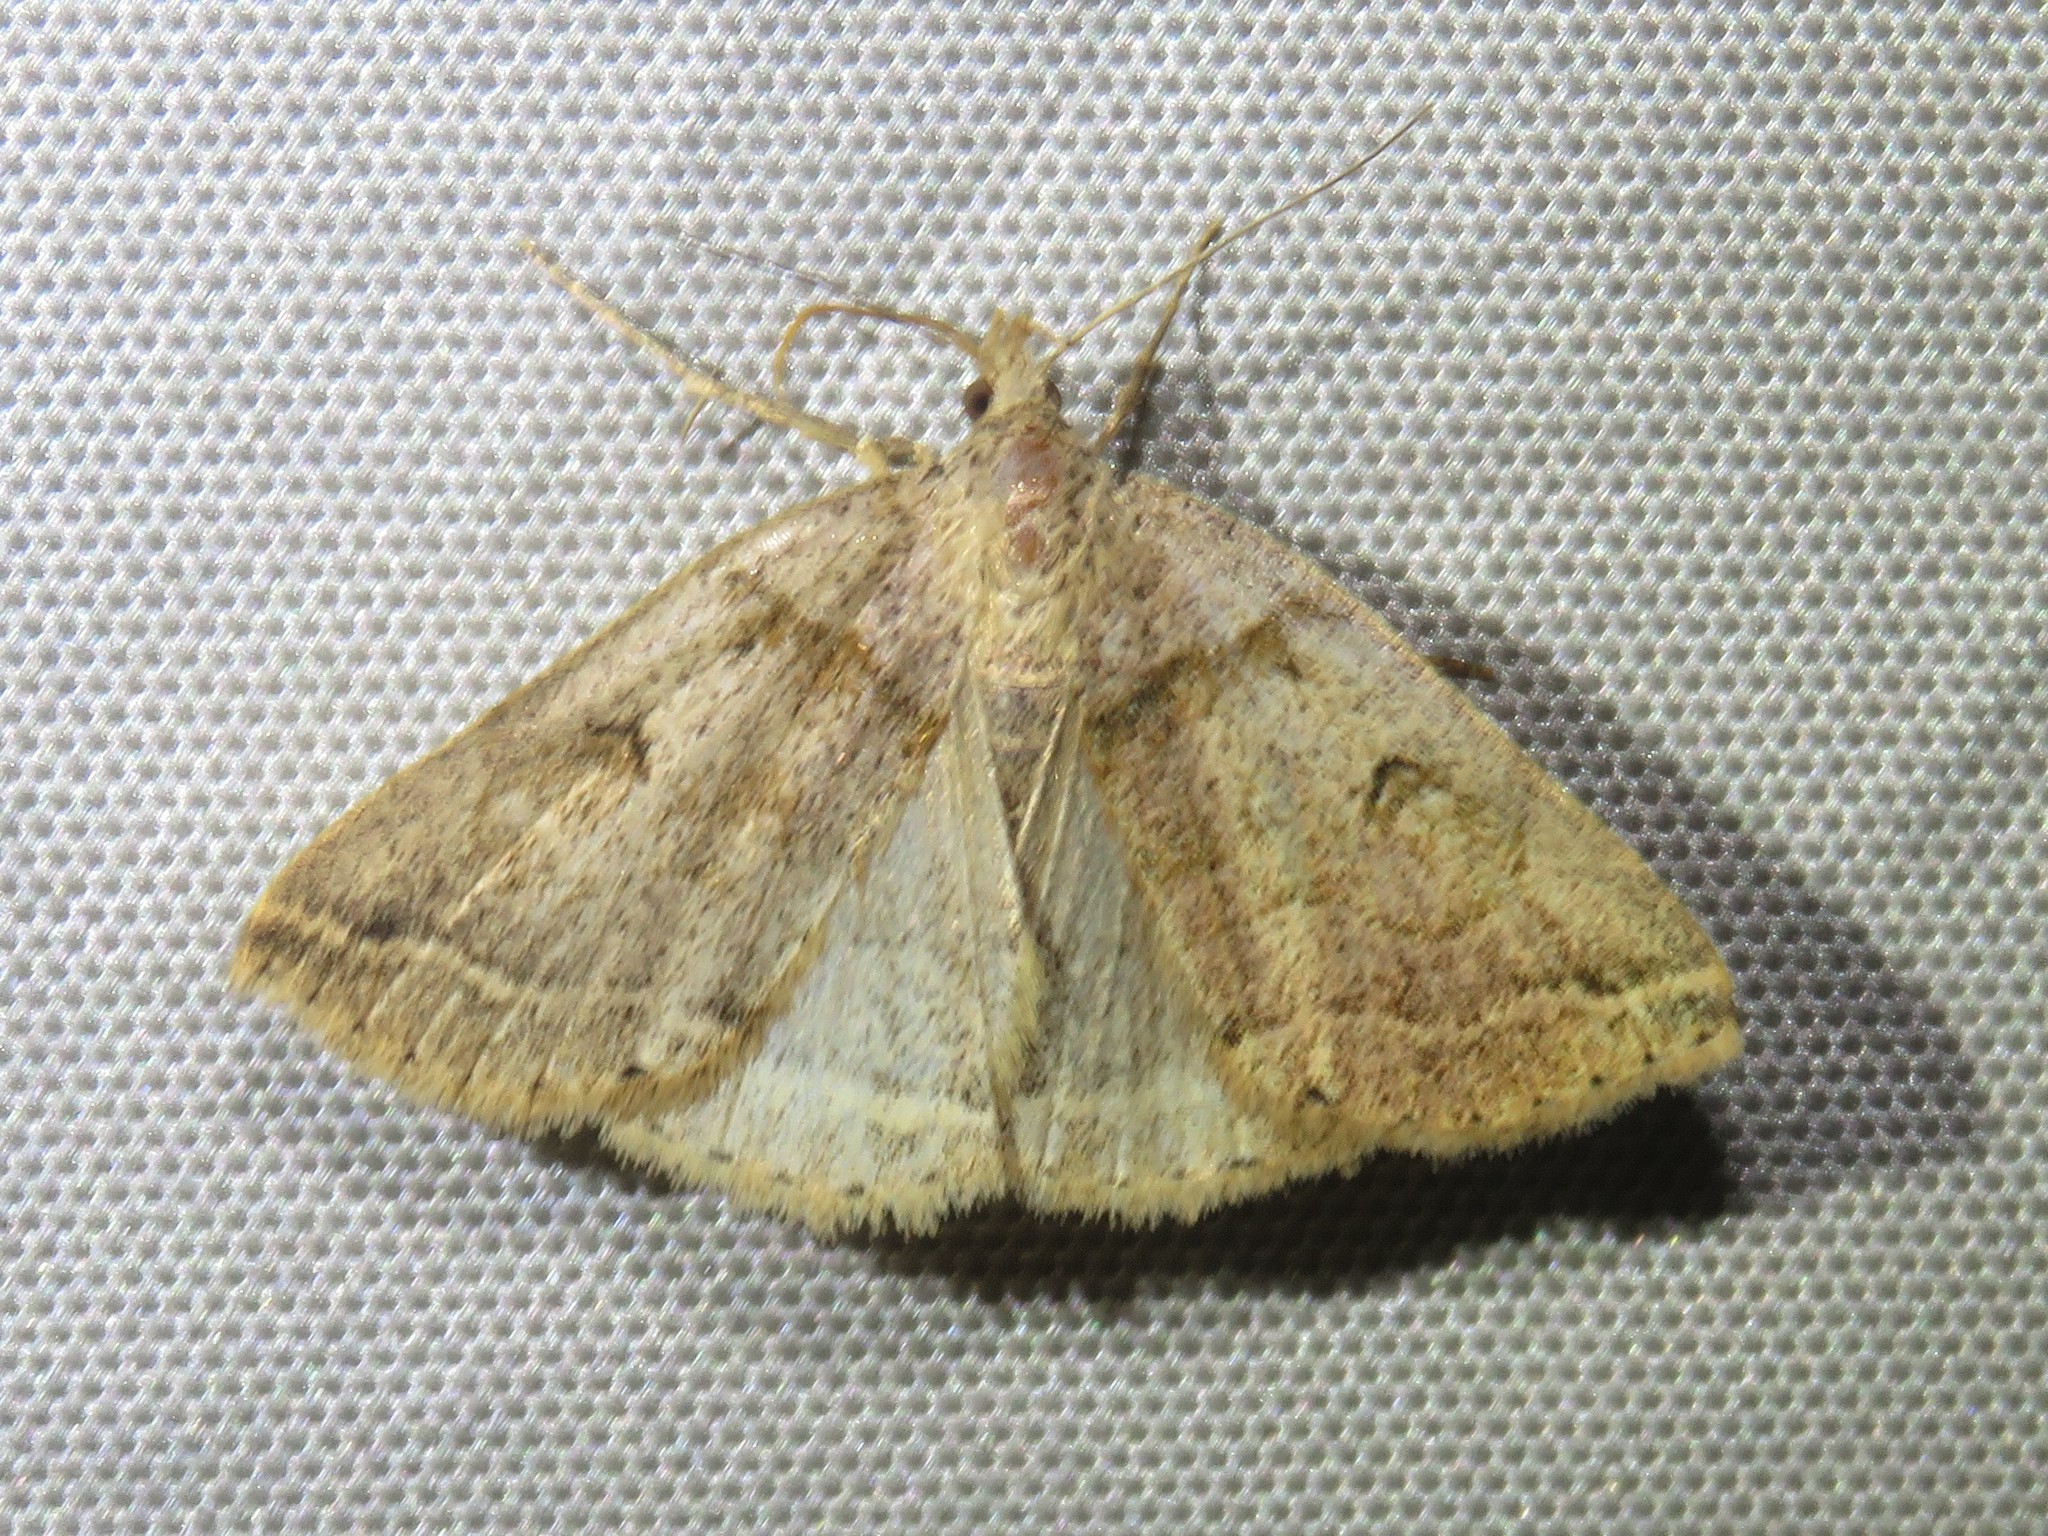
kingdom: Animalia
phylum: Arthropoda
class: Insecta
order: Lepidoptera
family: Erebidae
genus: Zanclognatha
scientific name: Zanclognatha laevigata
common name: Variable fan-foot
